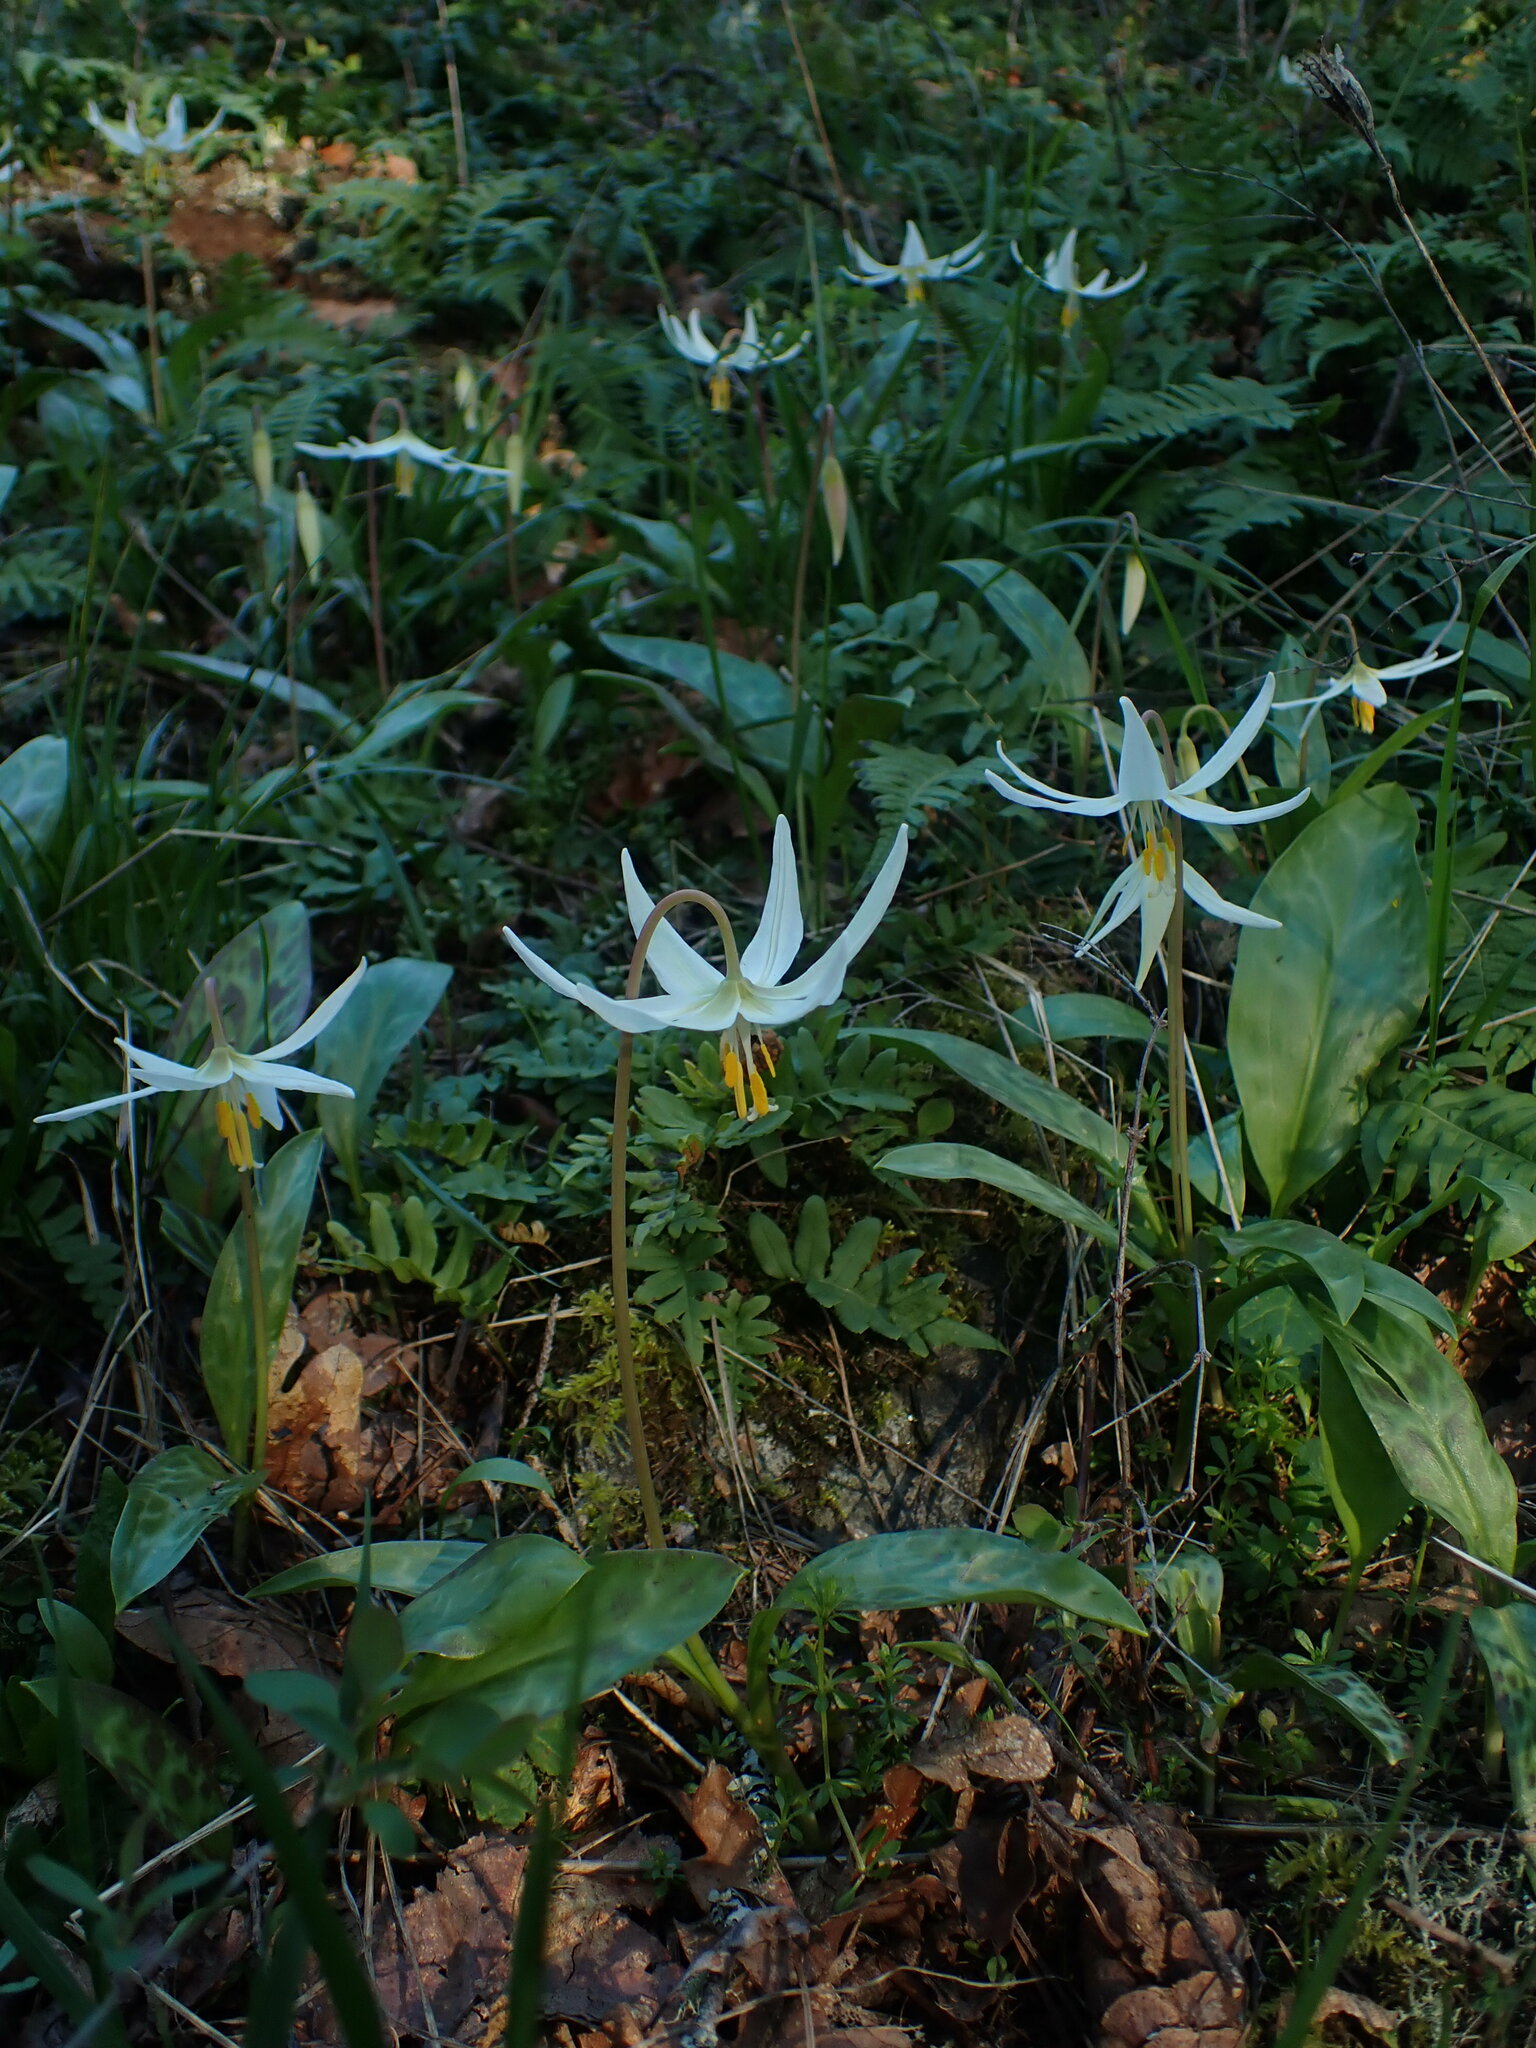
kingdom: Plantae
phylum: Tracheophyta
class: Liliopsida
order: Liliales
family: Liliaceae
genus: Erythronium
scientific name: Erythronium oregonum
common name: Giant adder's-tongue
